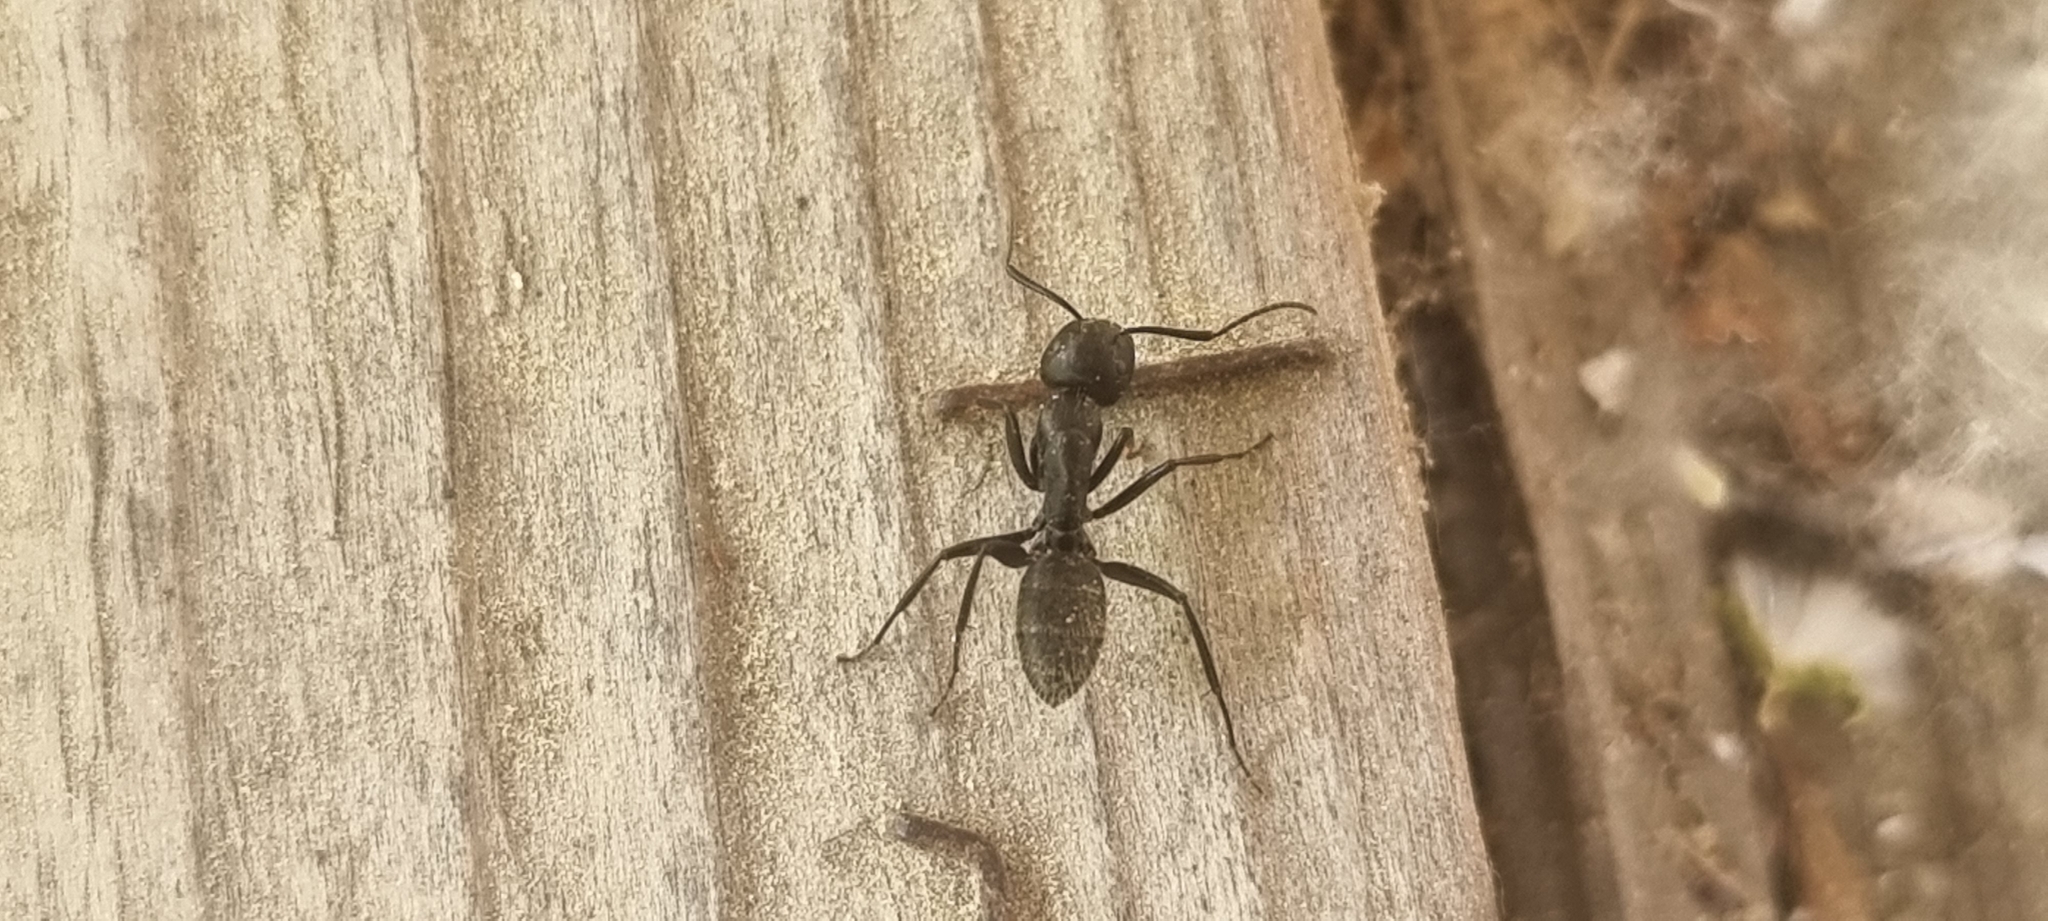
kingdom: Animalia
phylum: Arthropoda
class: Insecta
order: Hymenoptera
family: Formicidae
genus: Camponotus
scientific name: Camponotus vagus
